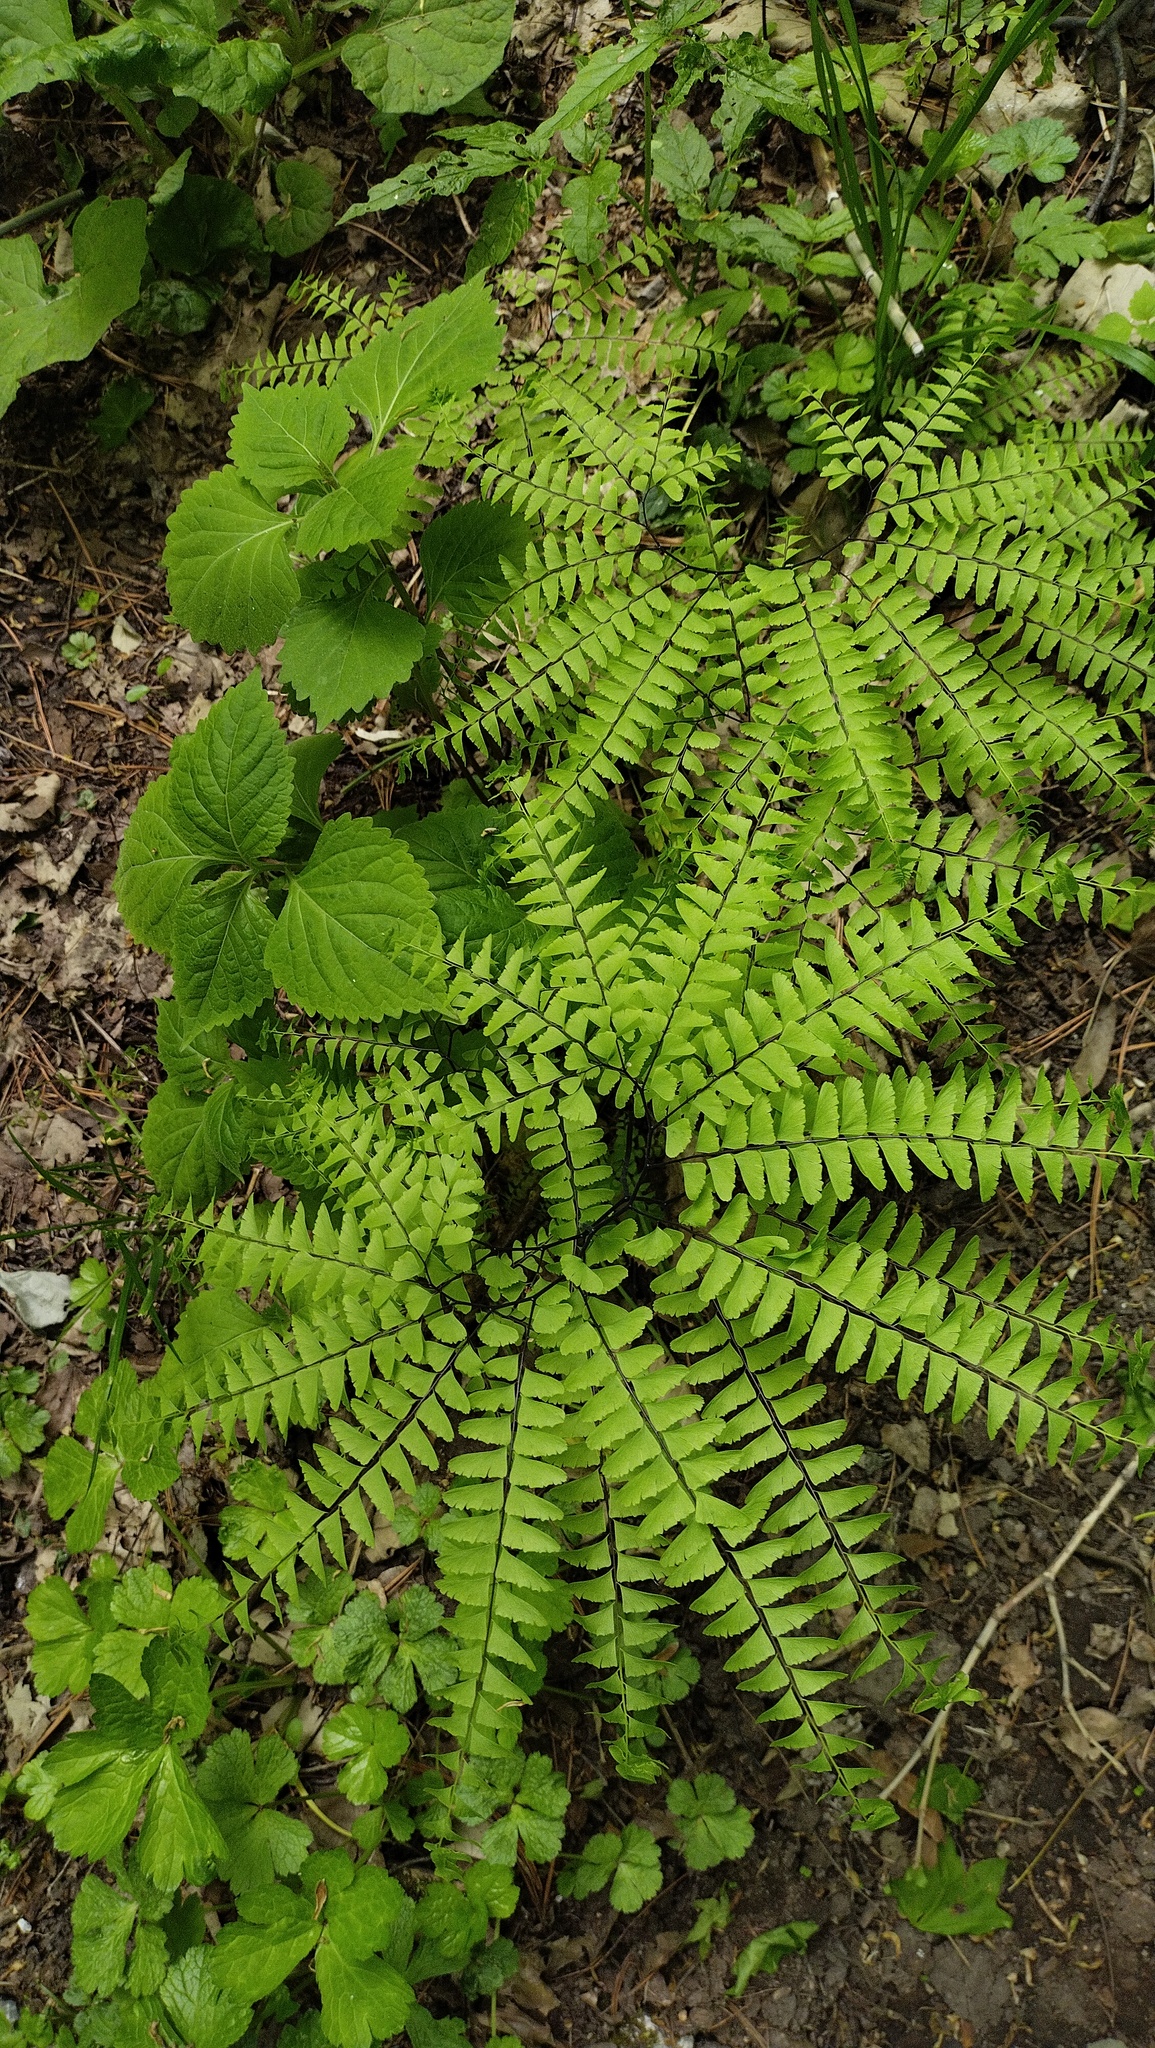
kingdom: Plantae
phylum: Tracheophyta
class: Polypodiopsida
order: Polypodiales
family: Pteridaceae
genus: Adiantum
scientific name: Adiantum pedatum
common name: Five-finger fern
